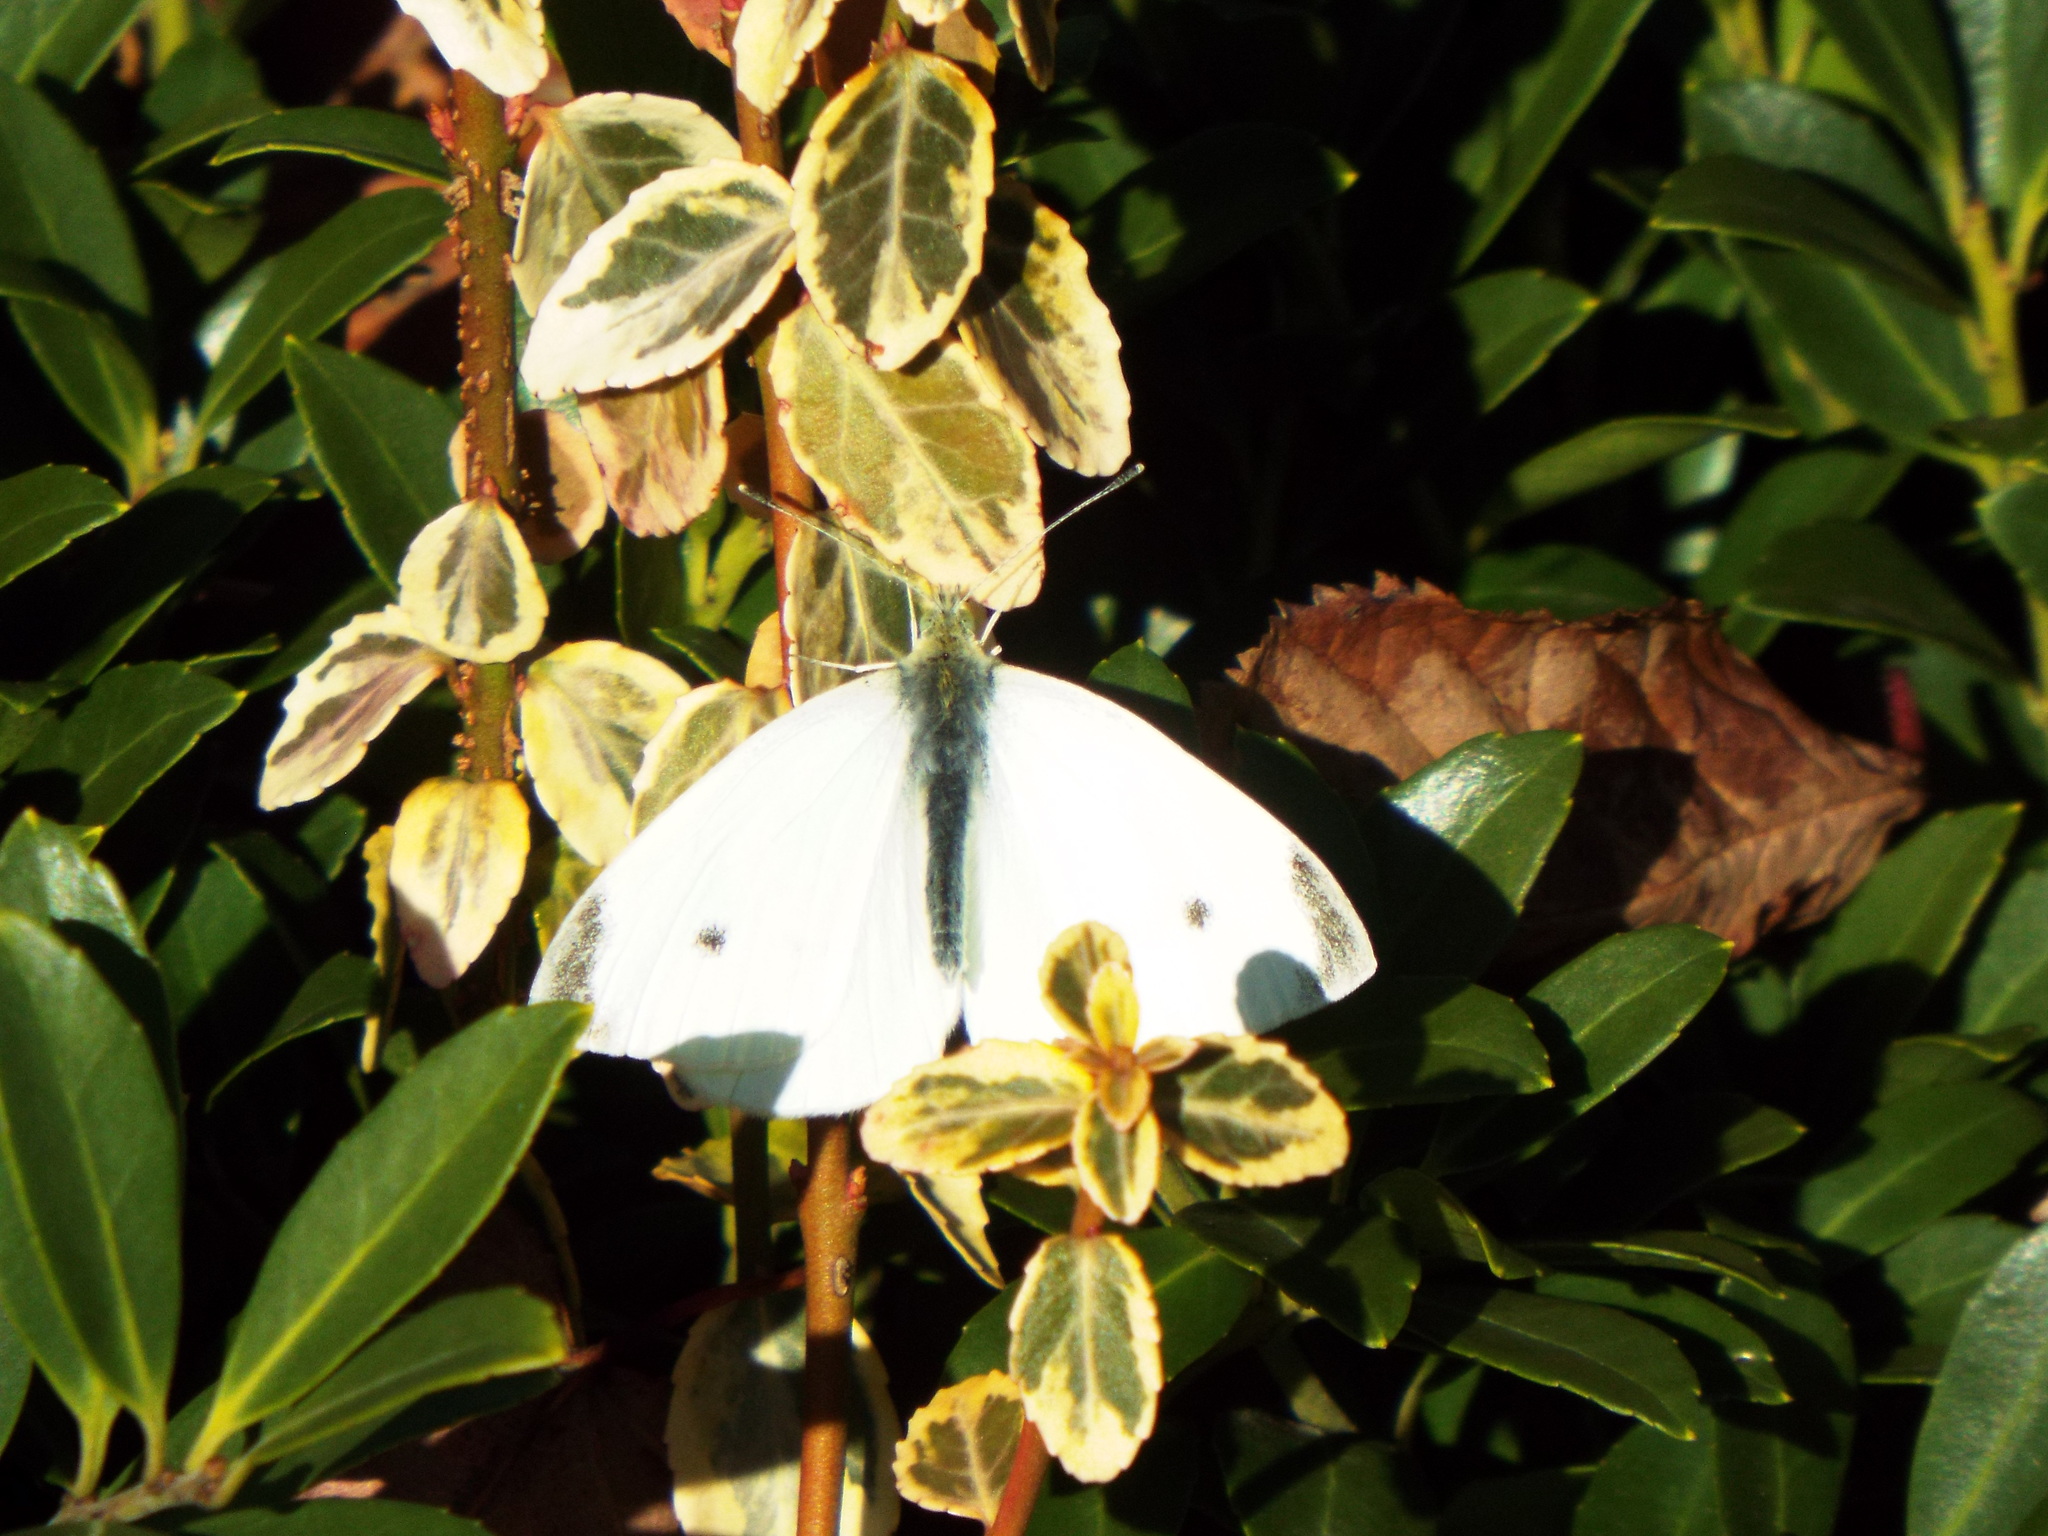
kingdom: Animalia
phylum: Arthropoda
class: Insecta
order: Lepidoptera
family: Pieridae
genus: Pieris
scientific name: Pieris rapae
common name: Small white
